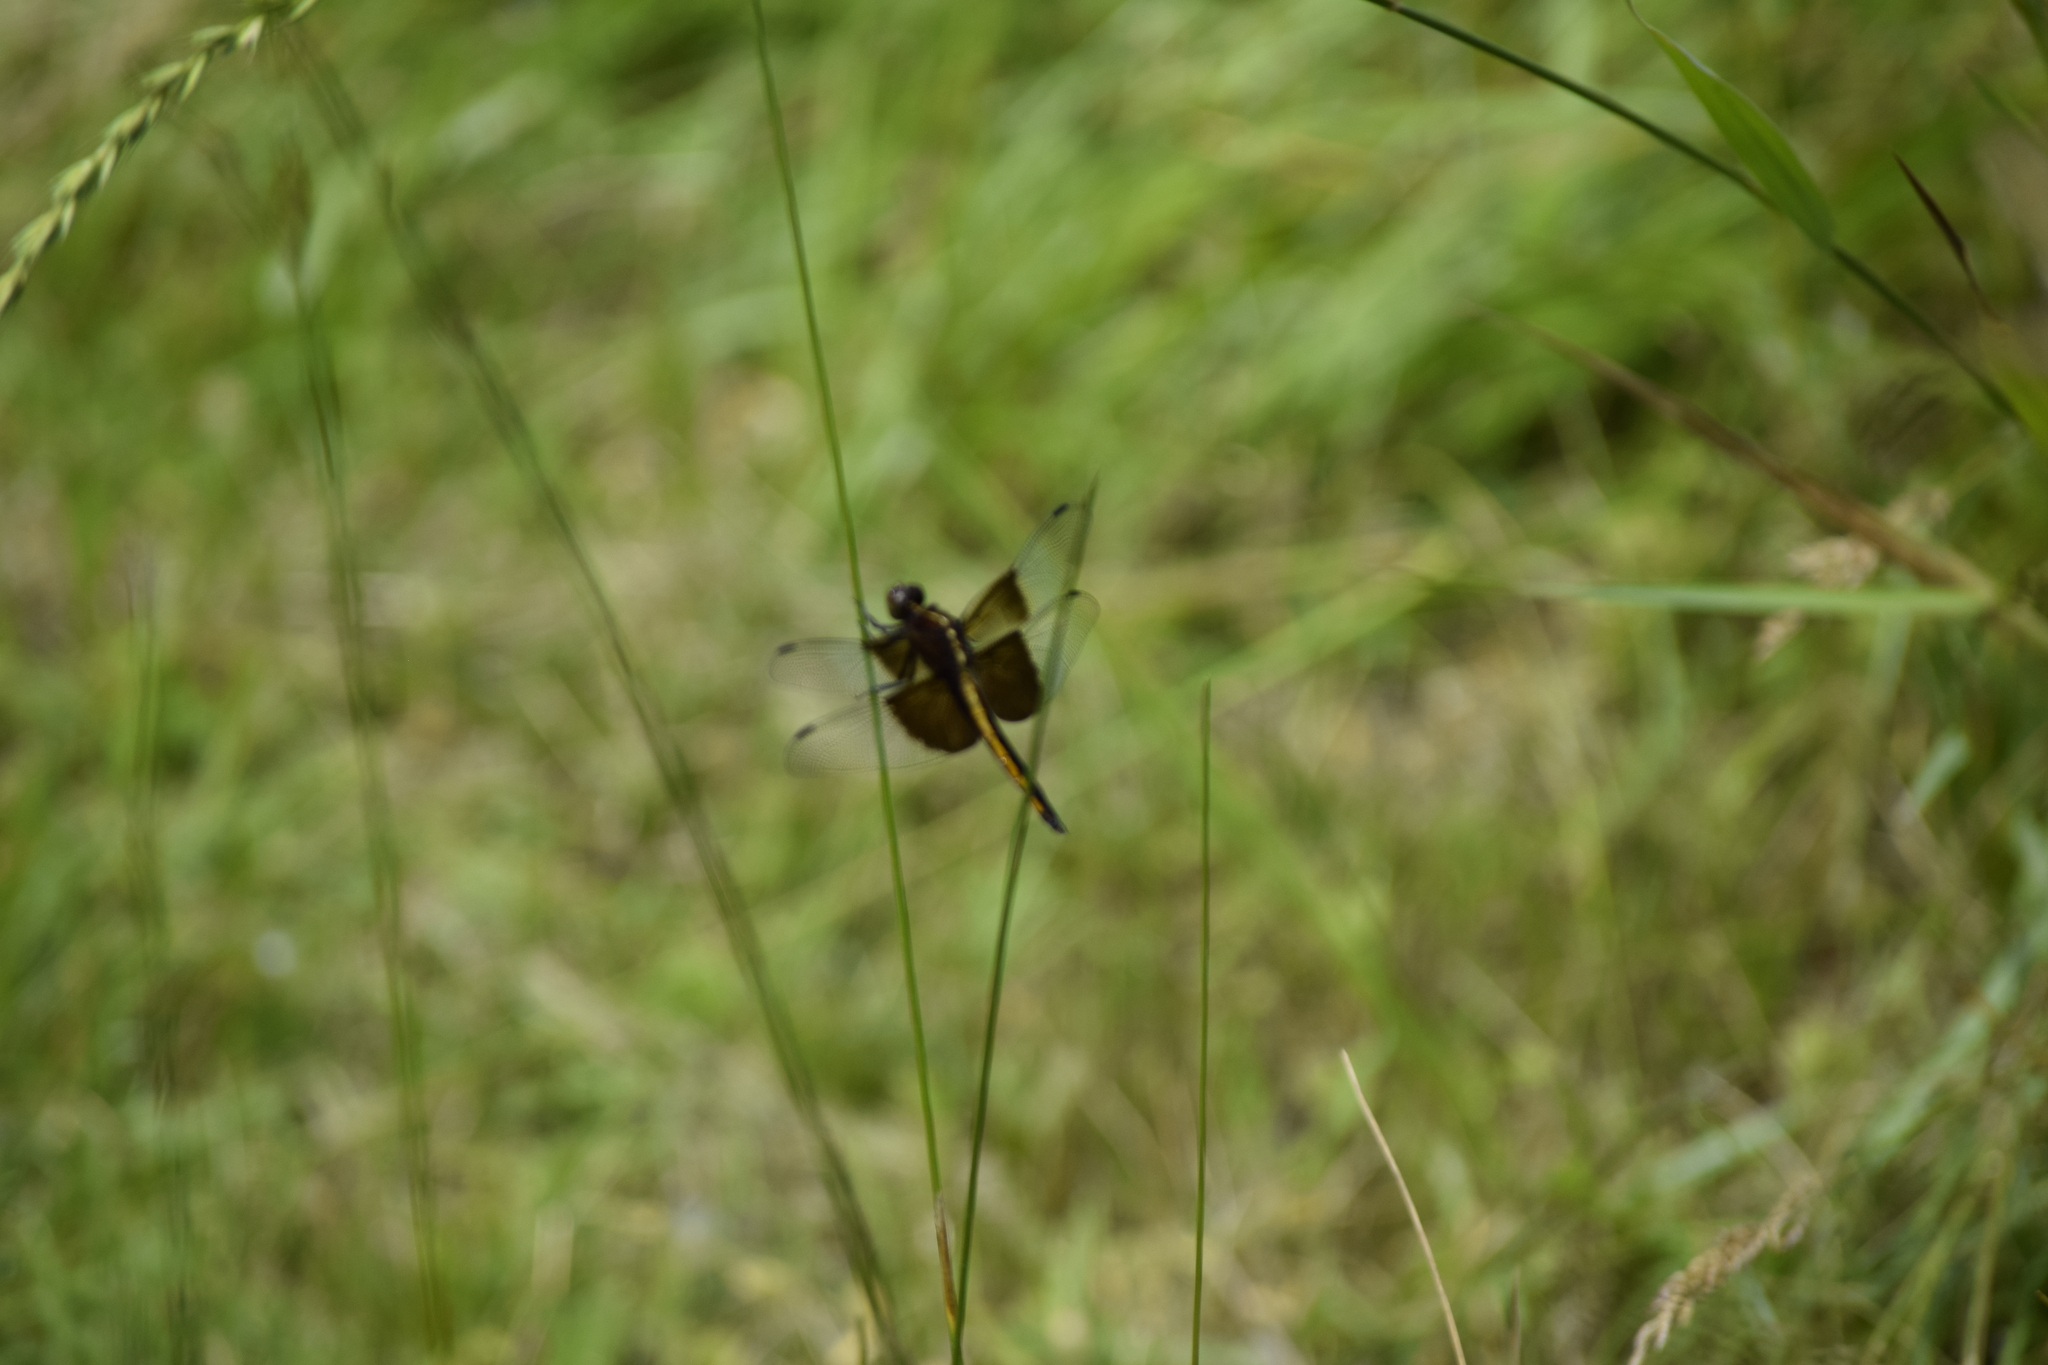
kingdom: Animalia
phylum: Arthropoda
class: Insecta
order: Odonata
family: Libellulidae
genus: Libellula
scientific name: Libellula luctuosa
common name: Widow skimmer
